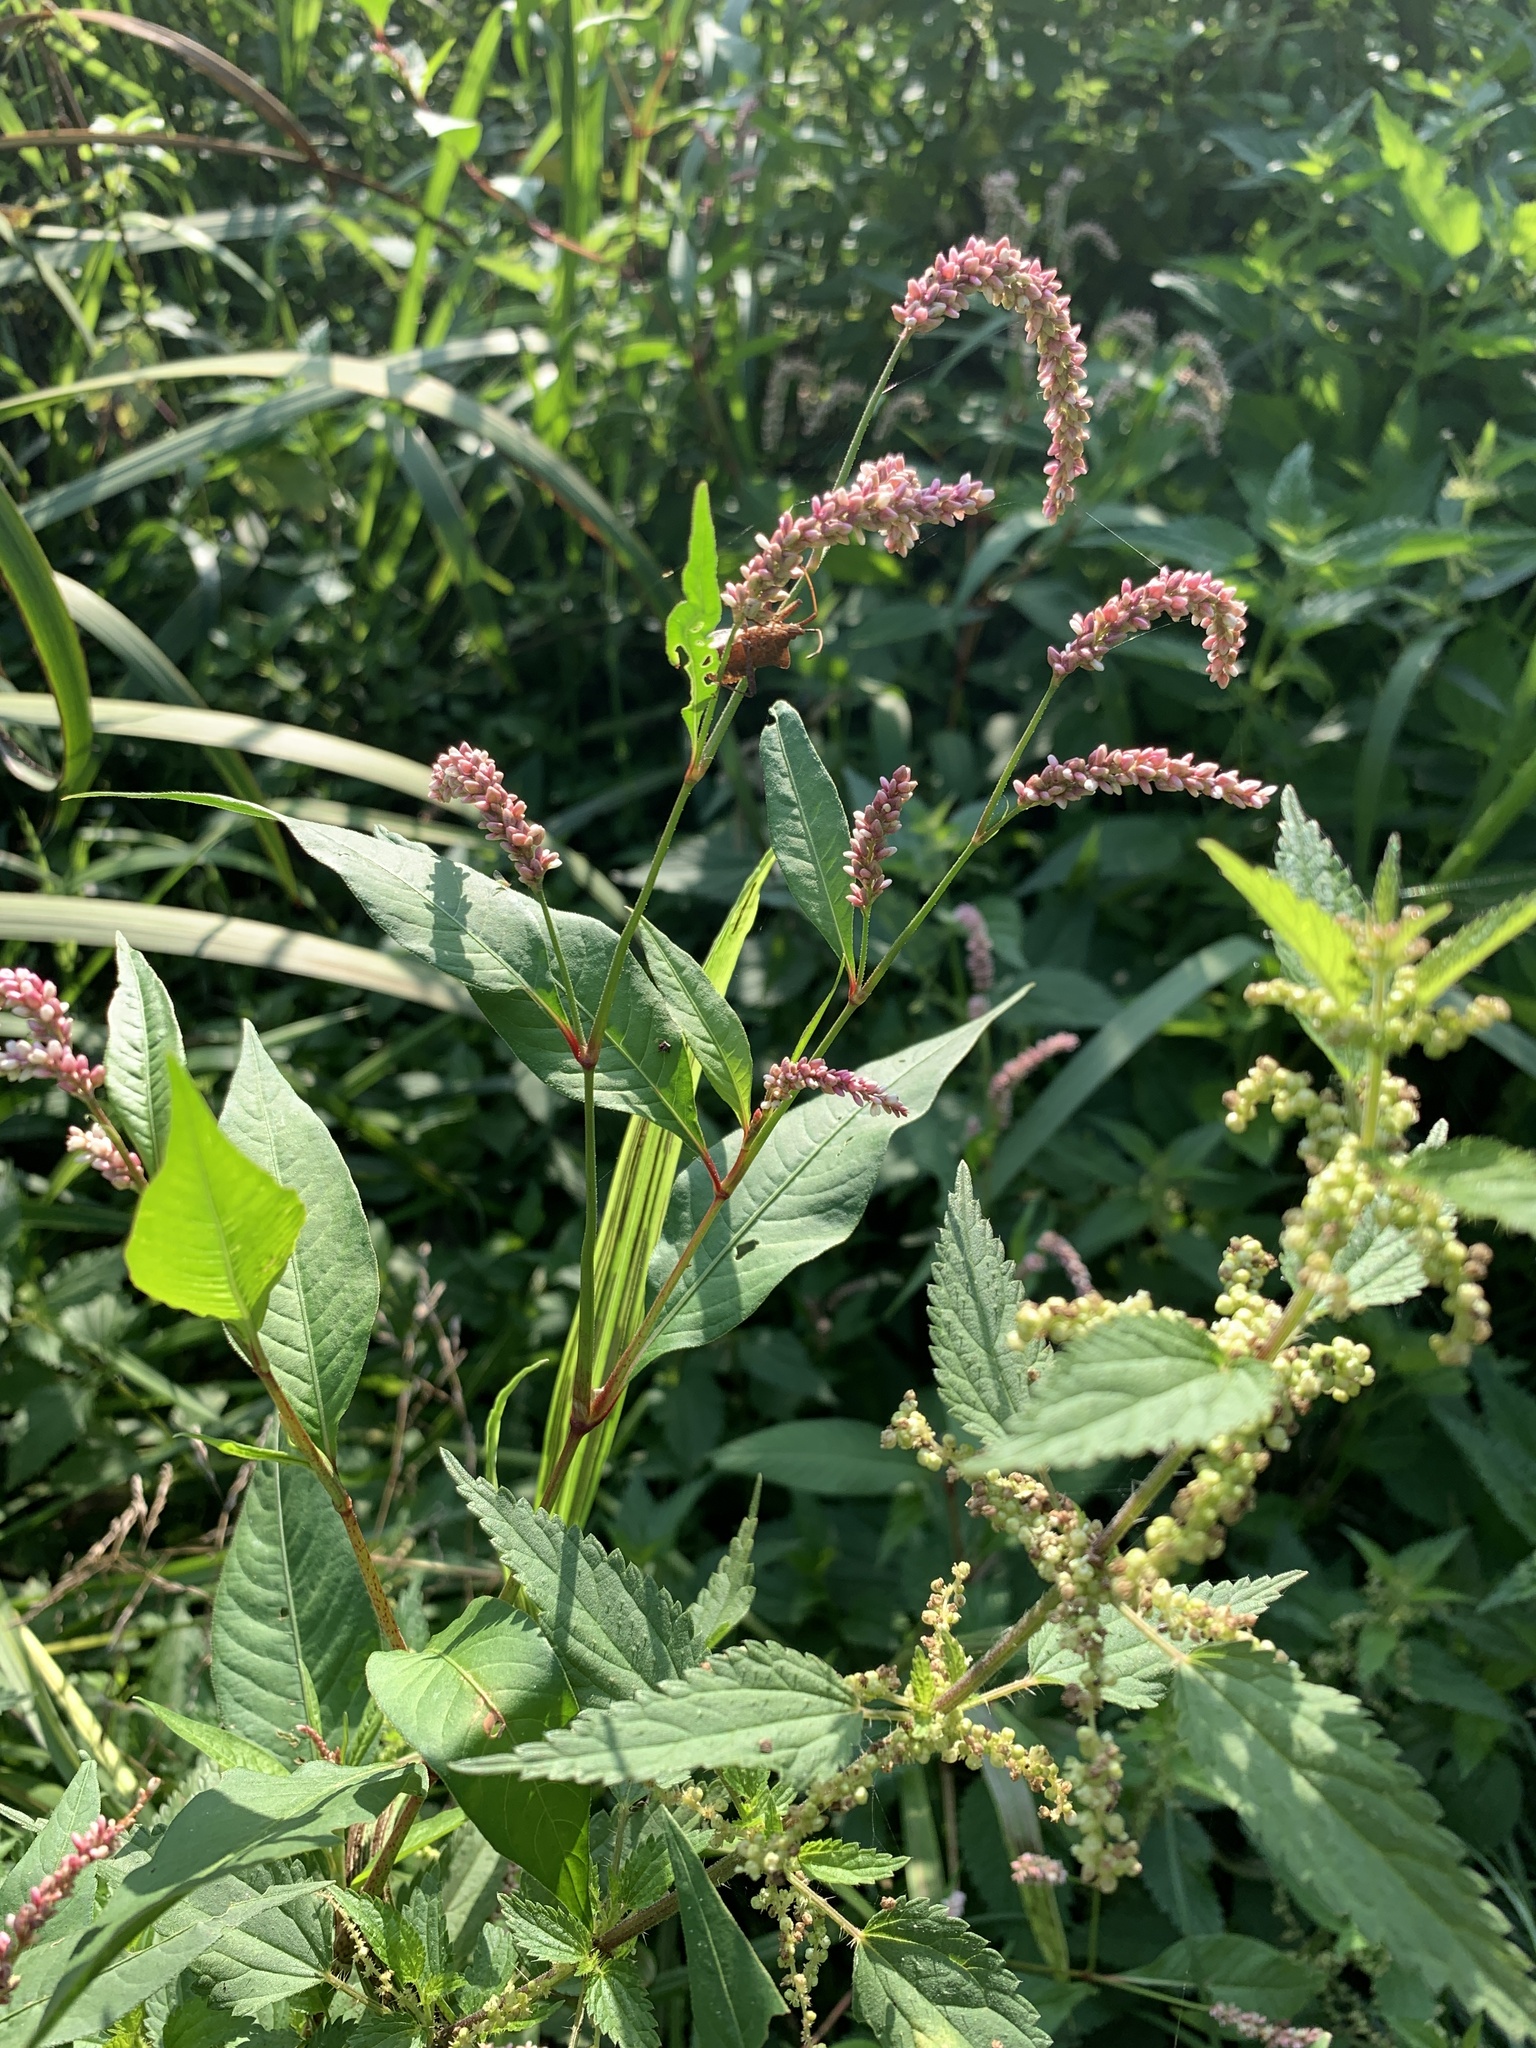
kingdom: Plantae
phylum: Tracheophyta
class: Magnoliopsida
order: Caryophyllales
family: Polygonaceae
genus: Persicaria
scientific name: Persicaria lapathifolia
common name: Curlytop knotweed
